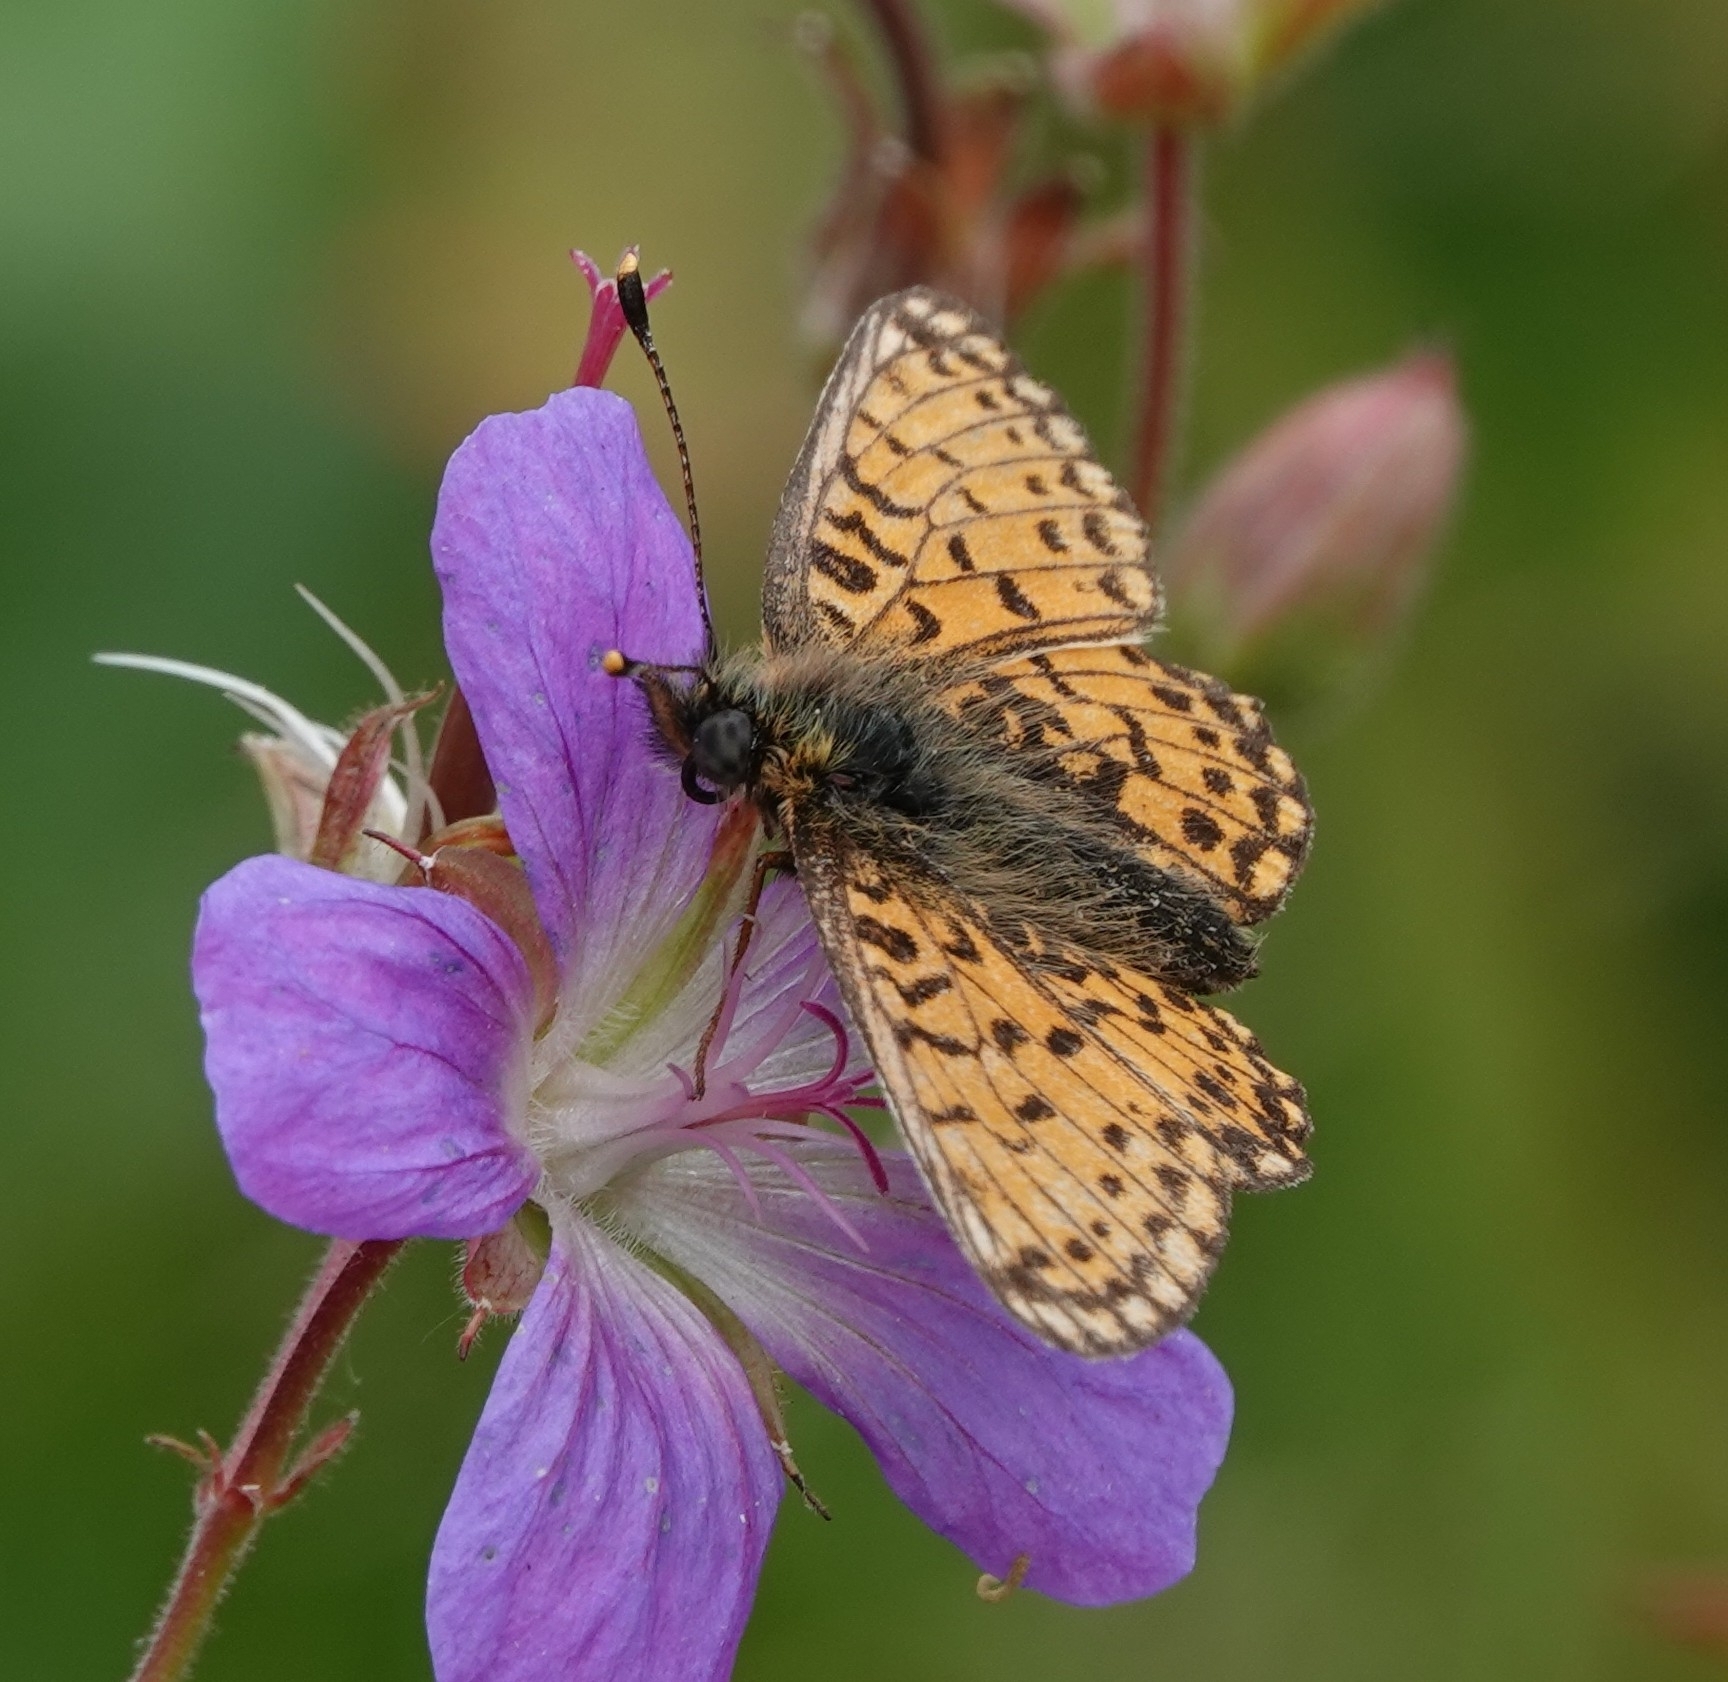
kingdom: Animalia
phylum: Arthropoda
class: Insecta
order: Lepidoptera
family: Nymphalidae
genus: Boloria
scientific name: Boloria selene
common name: Small pearl-bordered fritillary
